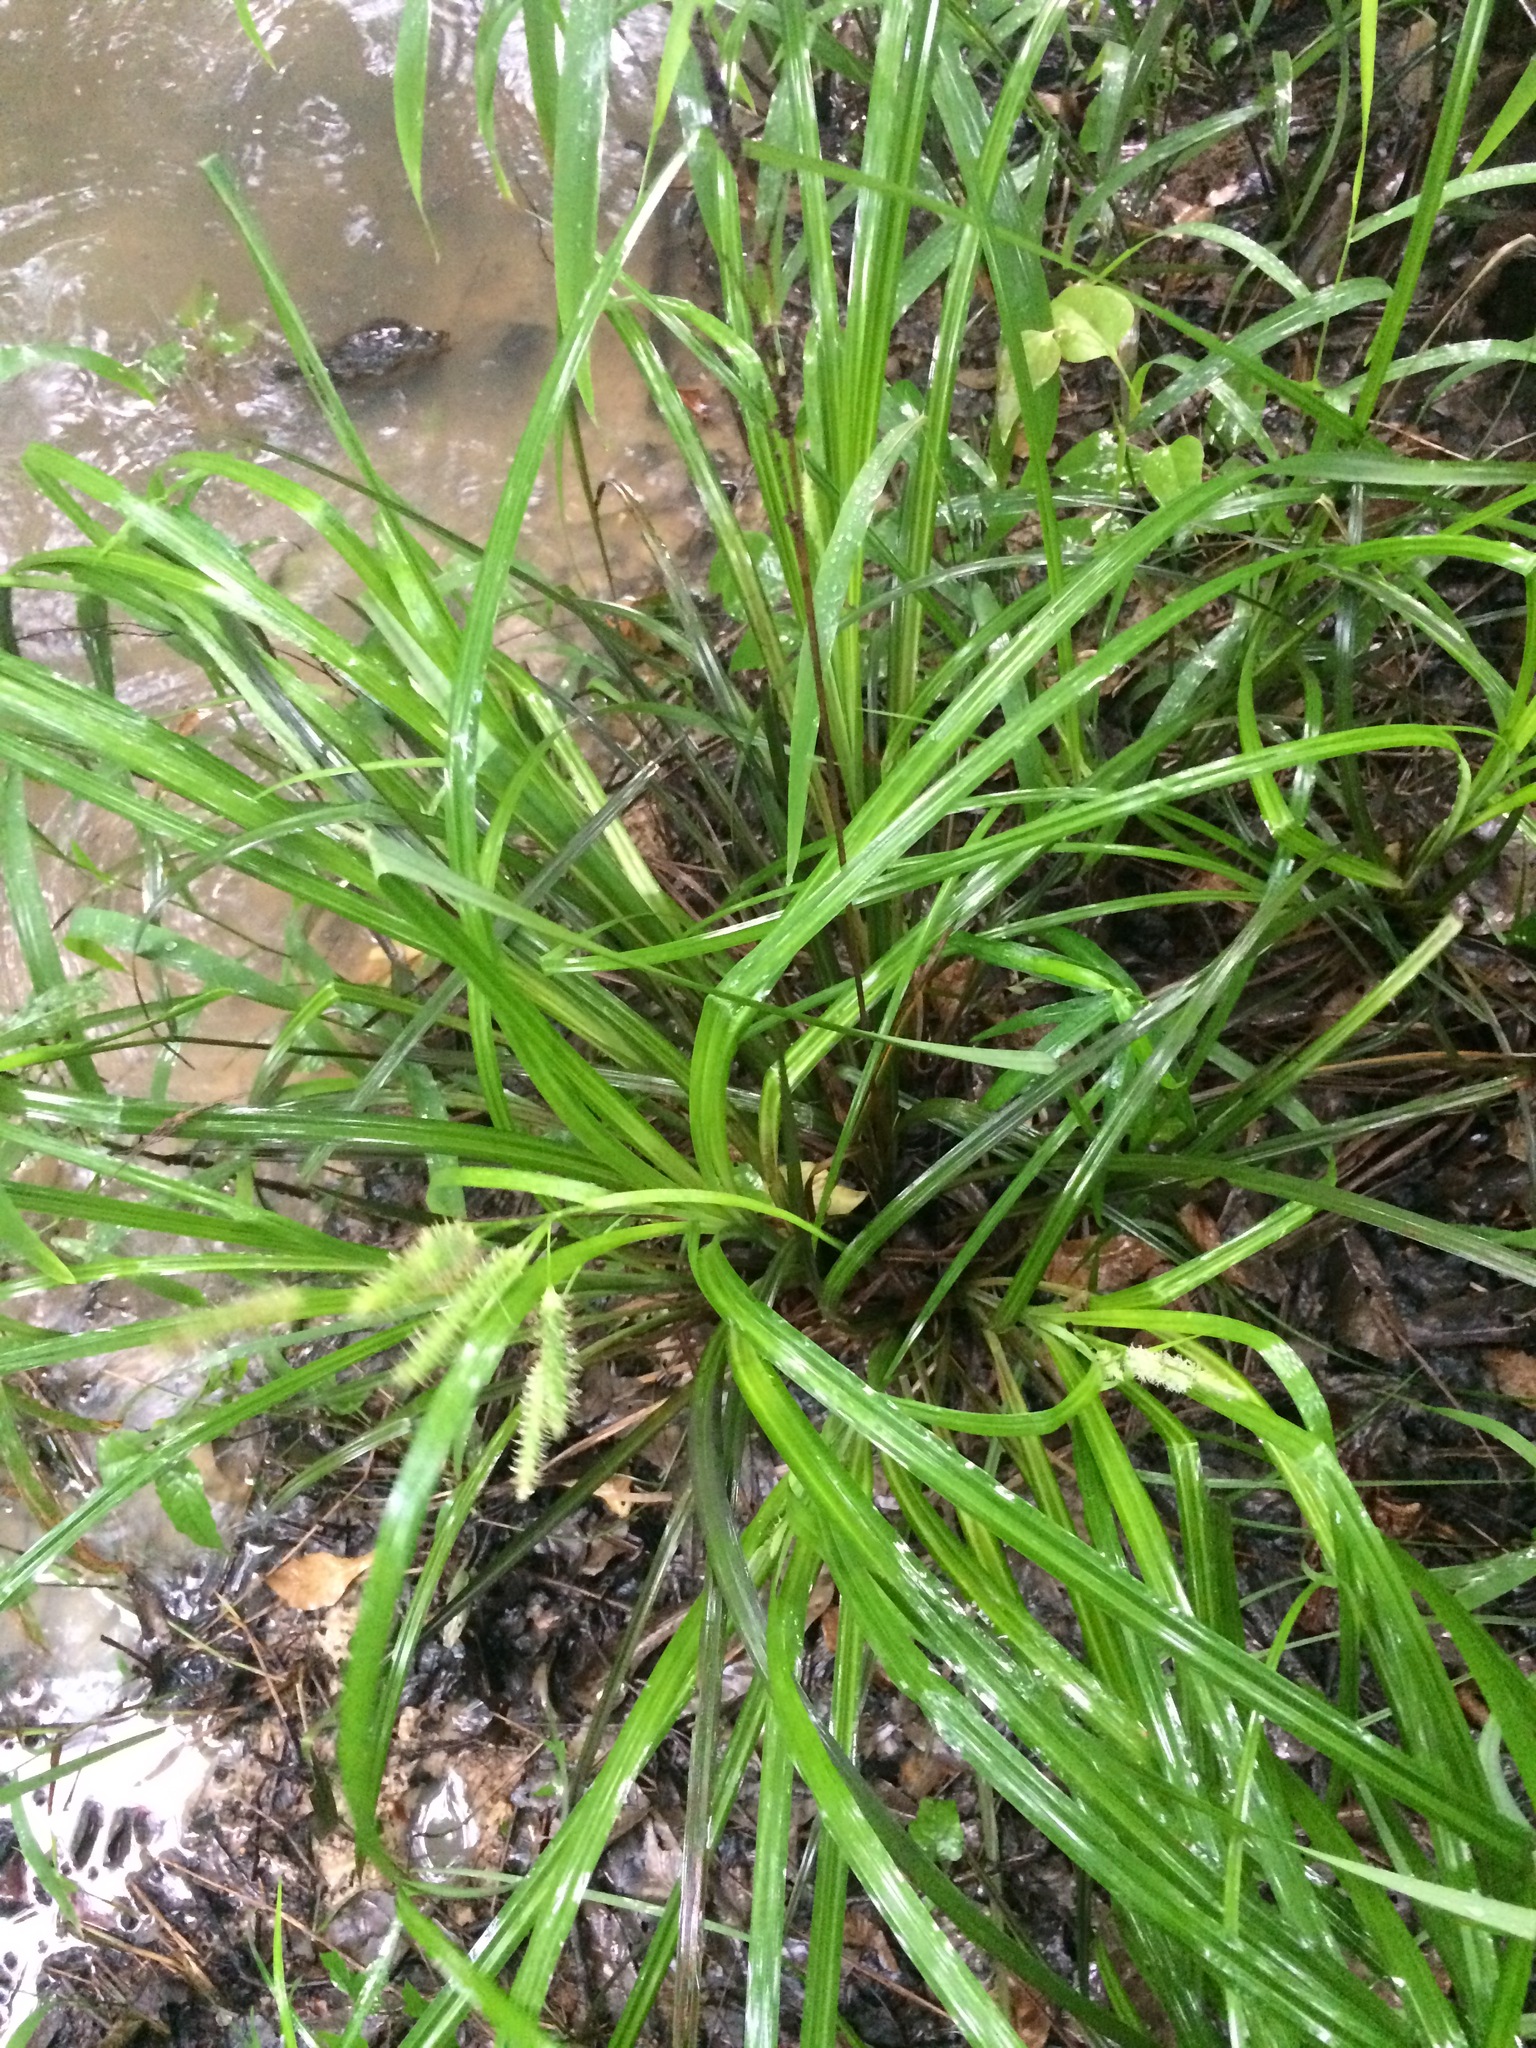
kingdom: Plantae
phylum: Tracheophyta
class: Liliopsida
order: Poales
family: Cyperaceae
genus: Carex
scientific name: Carex joorii
